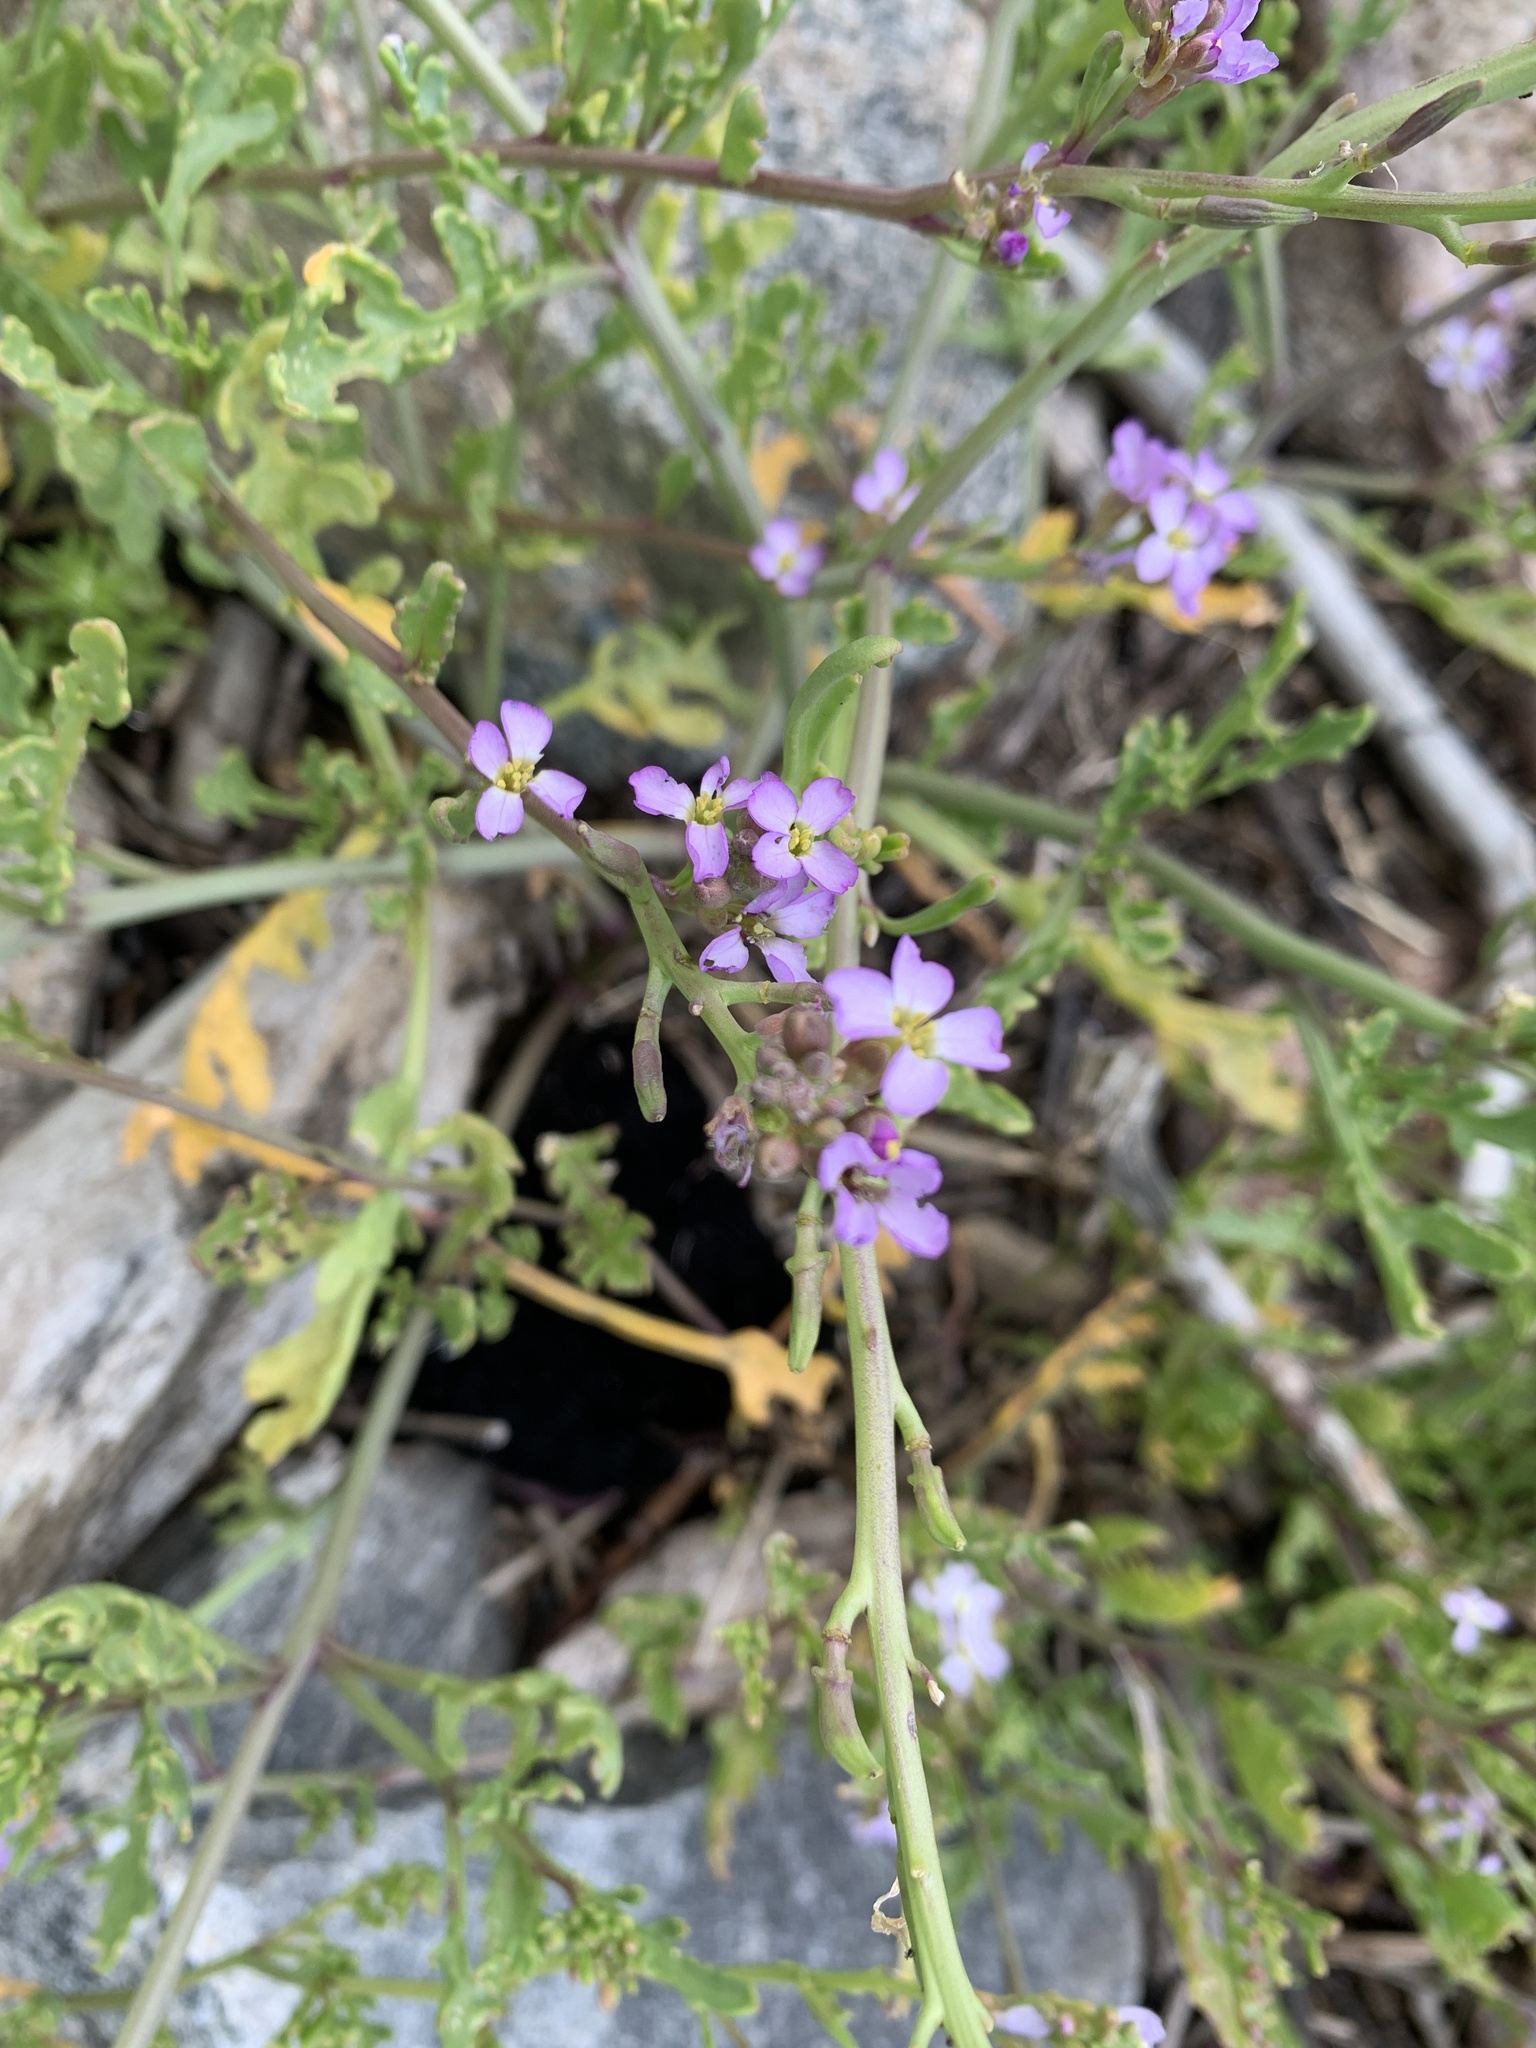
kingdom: Plantae
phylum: Tracheophyta
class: Magnoliopsida
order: Brassicales
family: Brassicaceae
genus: Cakile
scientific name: Cakile maritima
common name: Sea rocket
